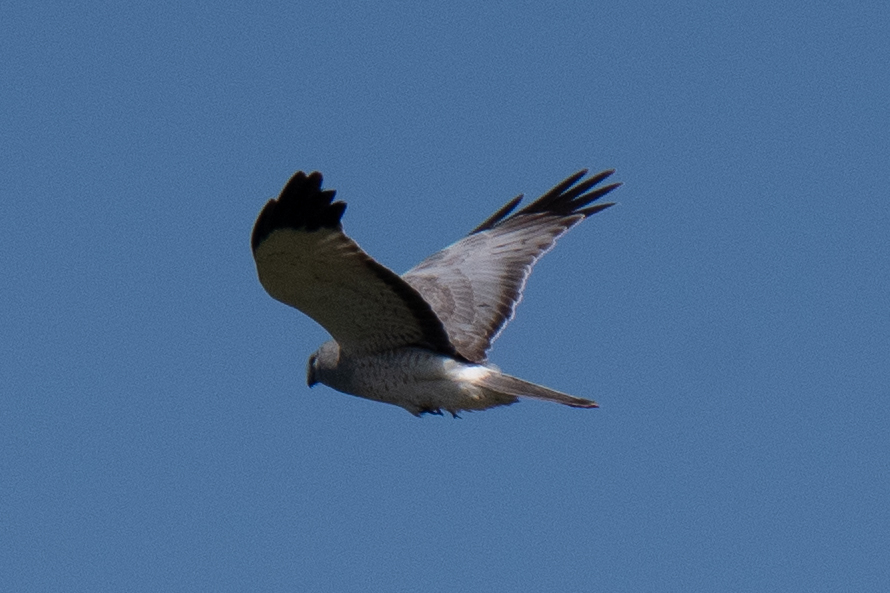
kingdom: Animalia
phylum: Chordata
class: Aves
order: Accipitriformes
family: Accipitridae
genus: Circus
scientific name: Circus cyaneus
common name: Hen harrier
